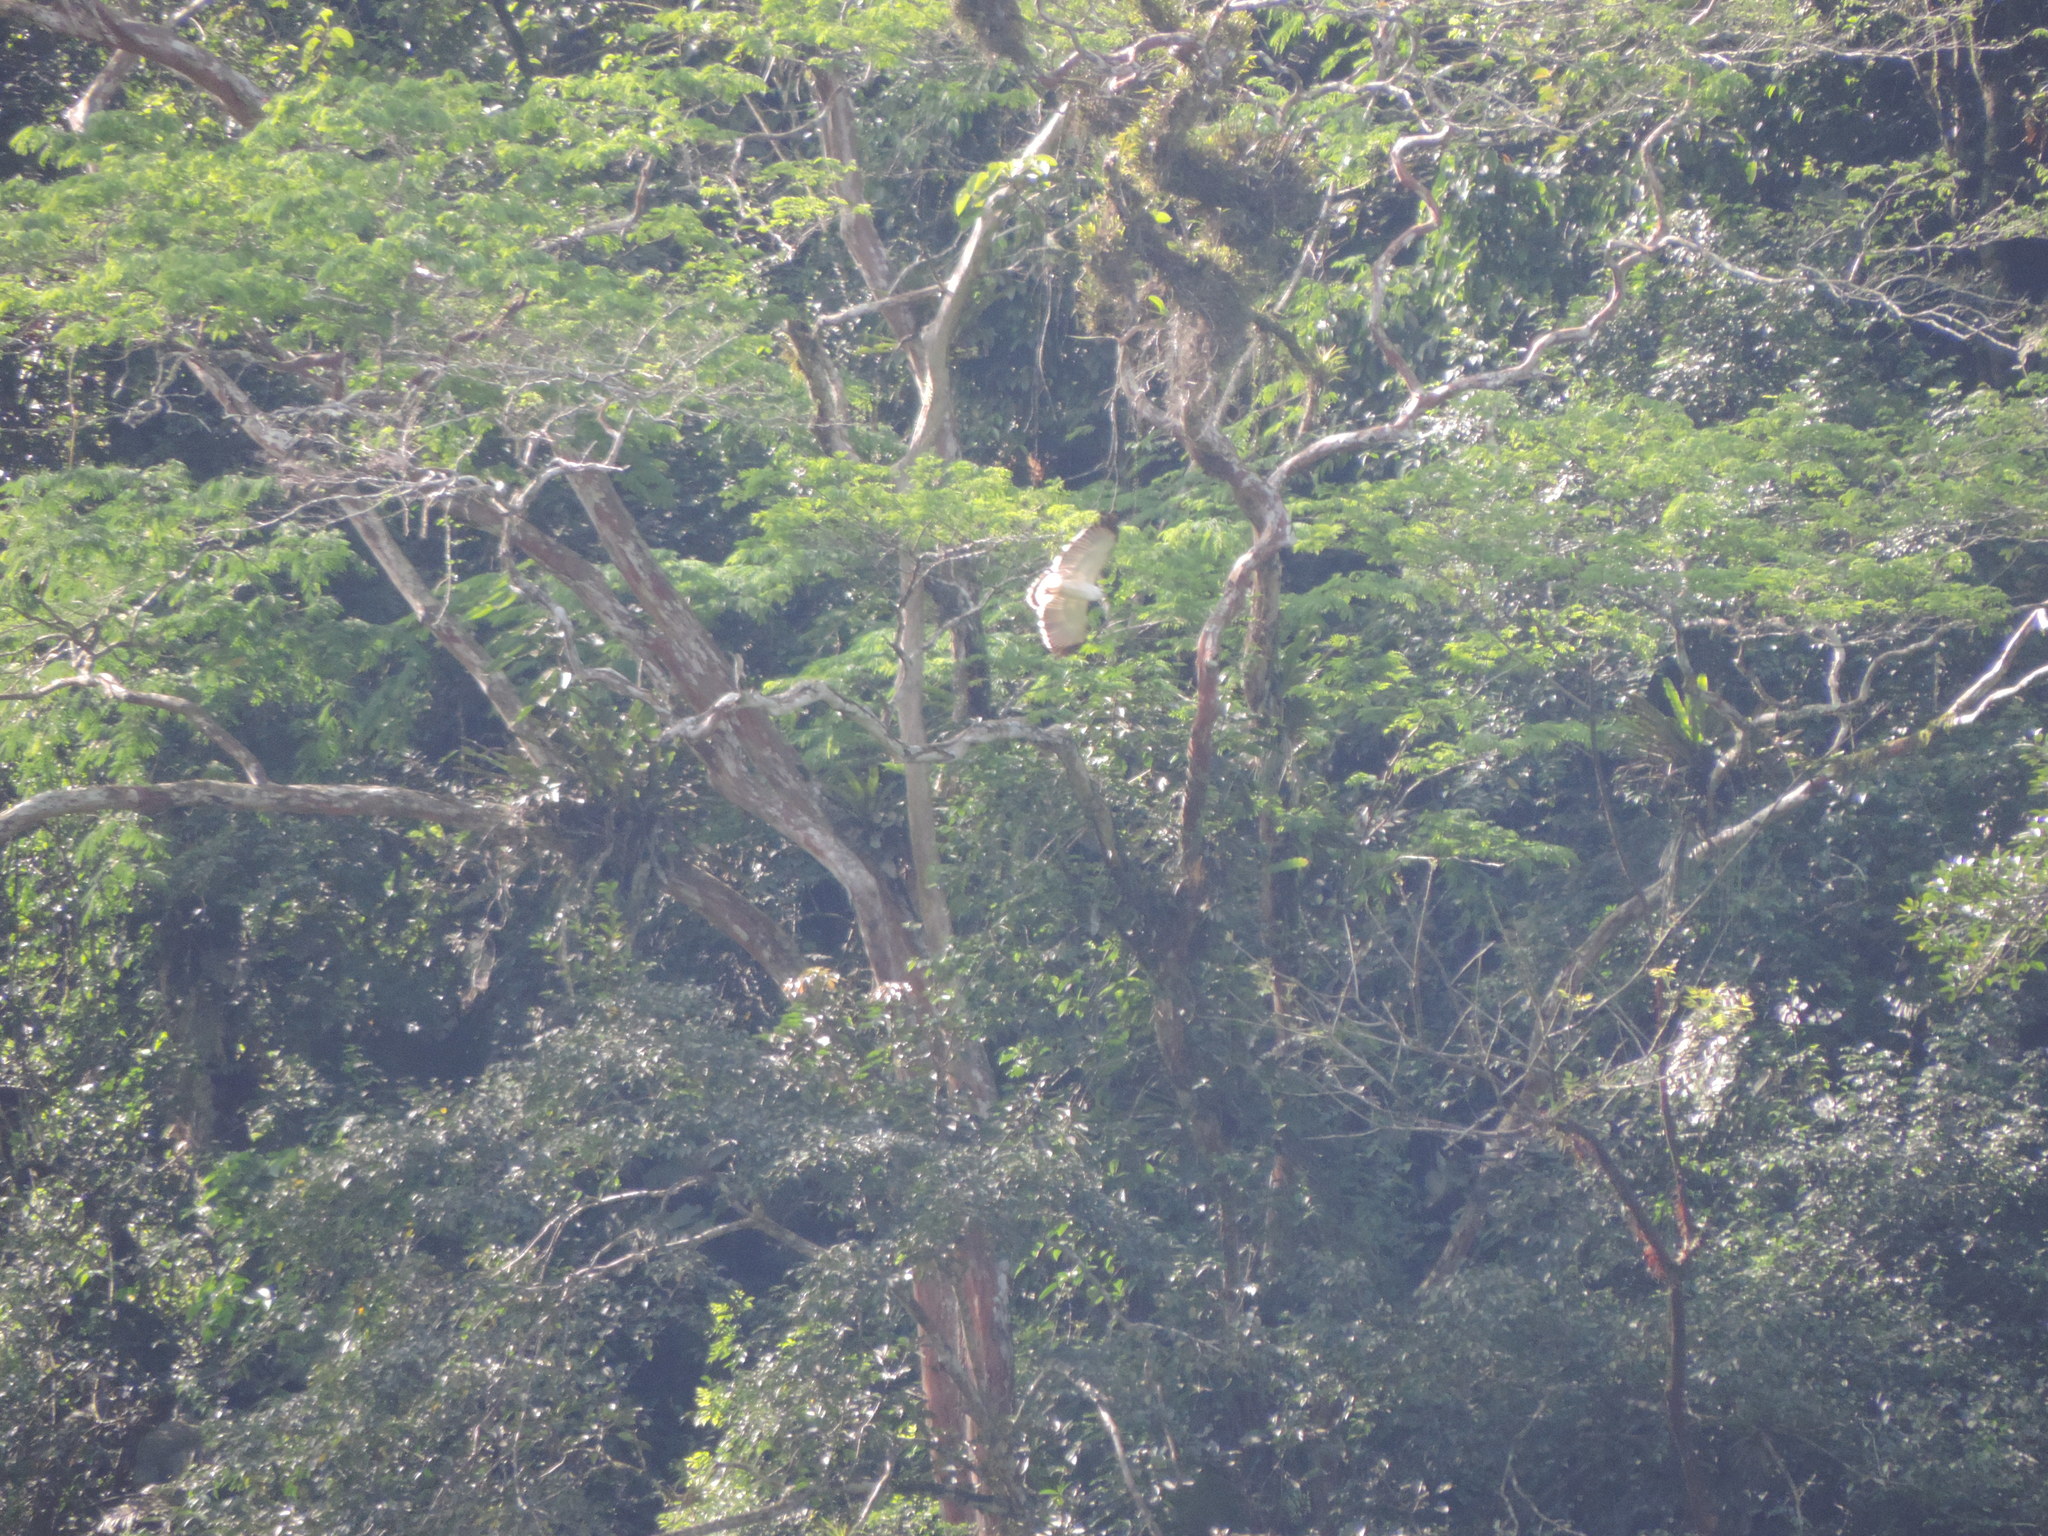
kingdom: Animalia
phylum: Chordata
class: Aves
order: Accipitriformes
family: Accipitridae
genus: Leucopternis
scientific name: Leucopternis albicollis
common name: White hawk
